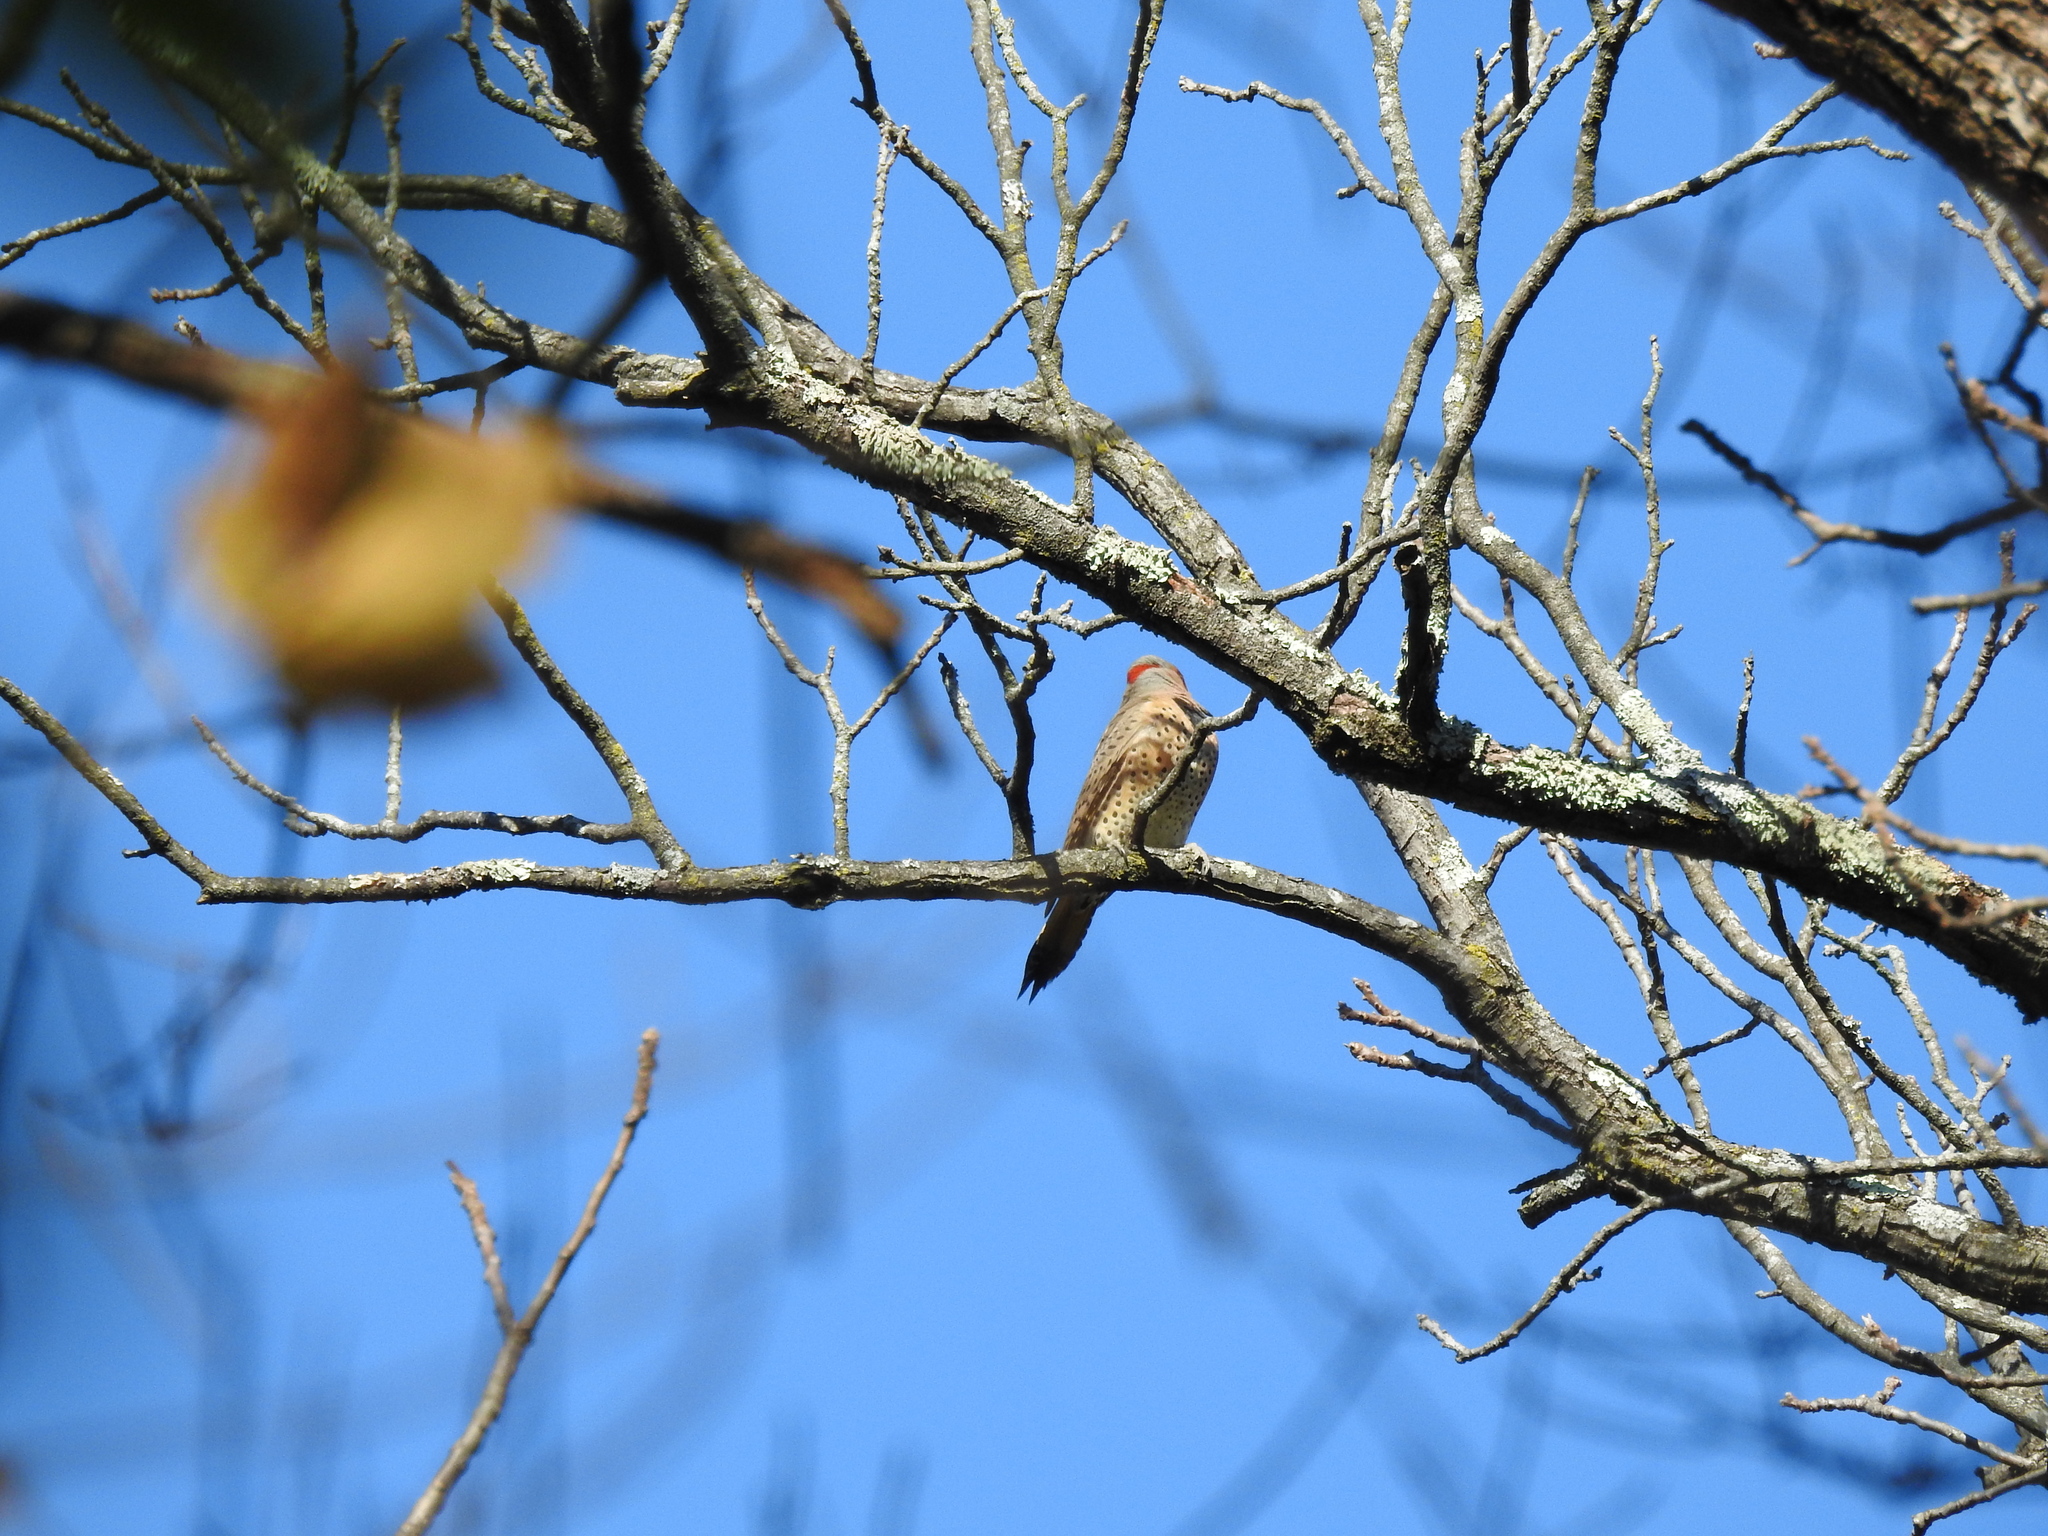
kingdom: Animalia
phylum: Chordata
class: Aves
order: Piciformes
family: Picidae
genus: Colaptes
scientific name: Colaptes auratus
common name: Northern flicker
